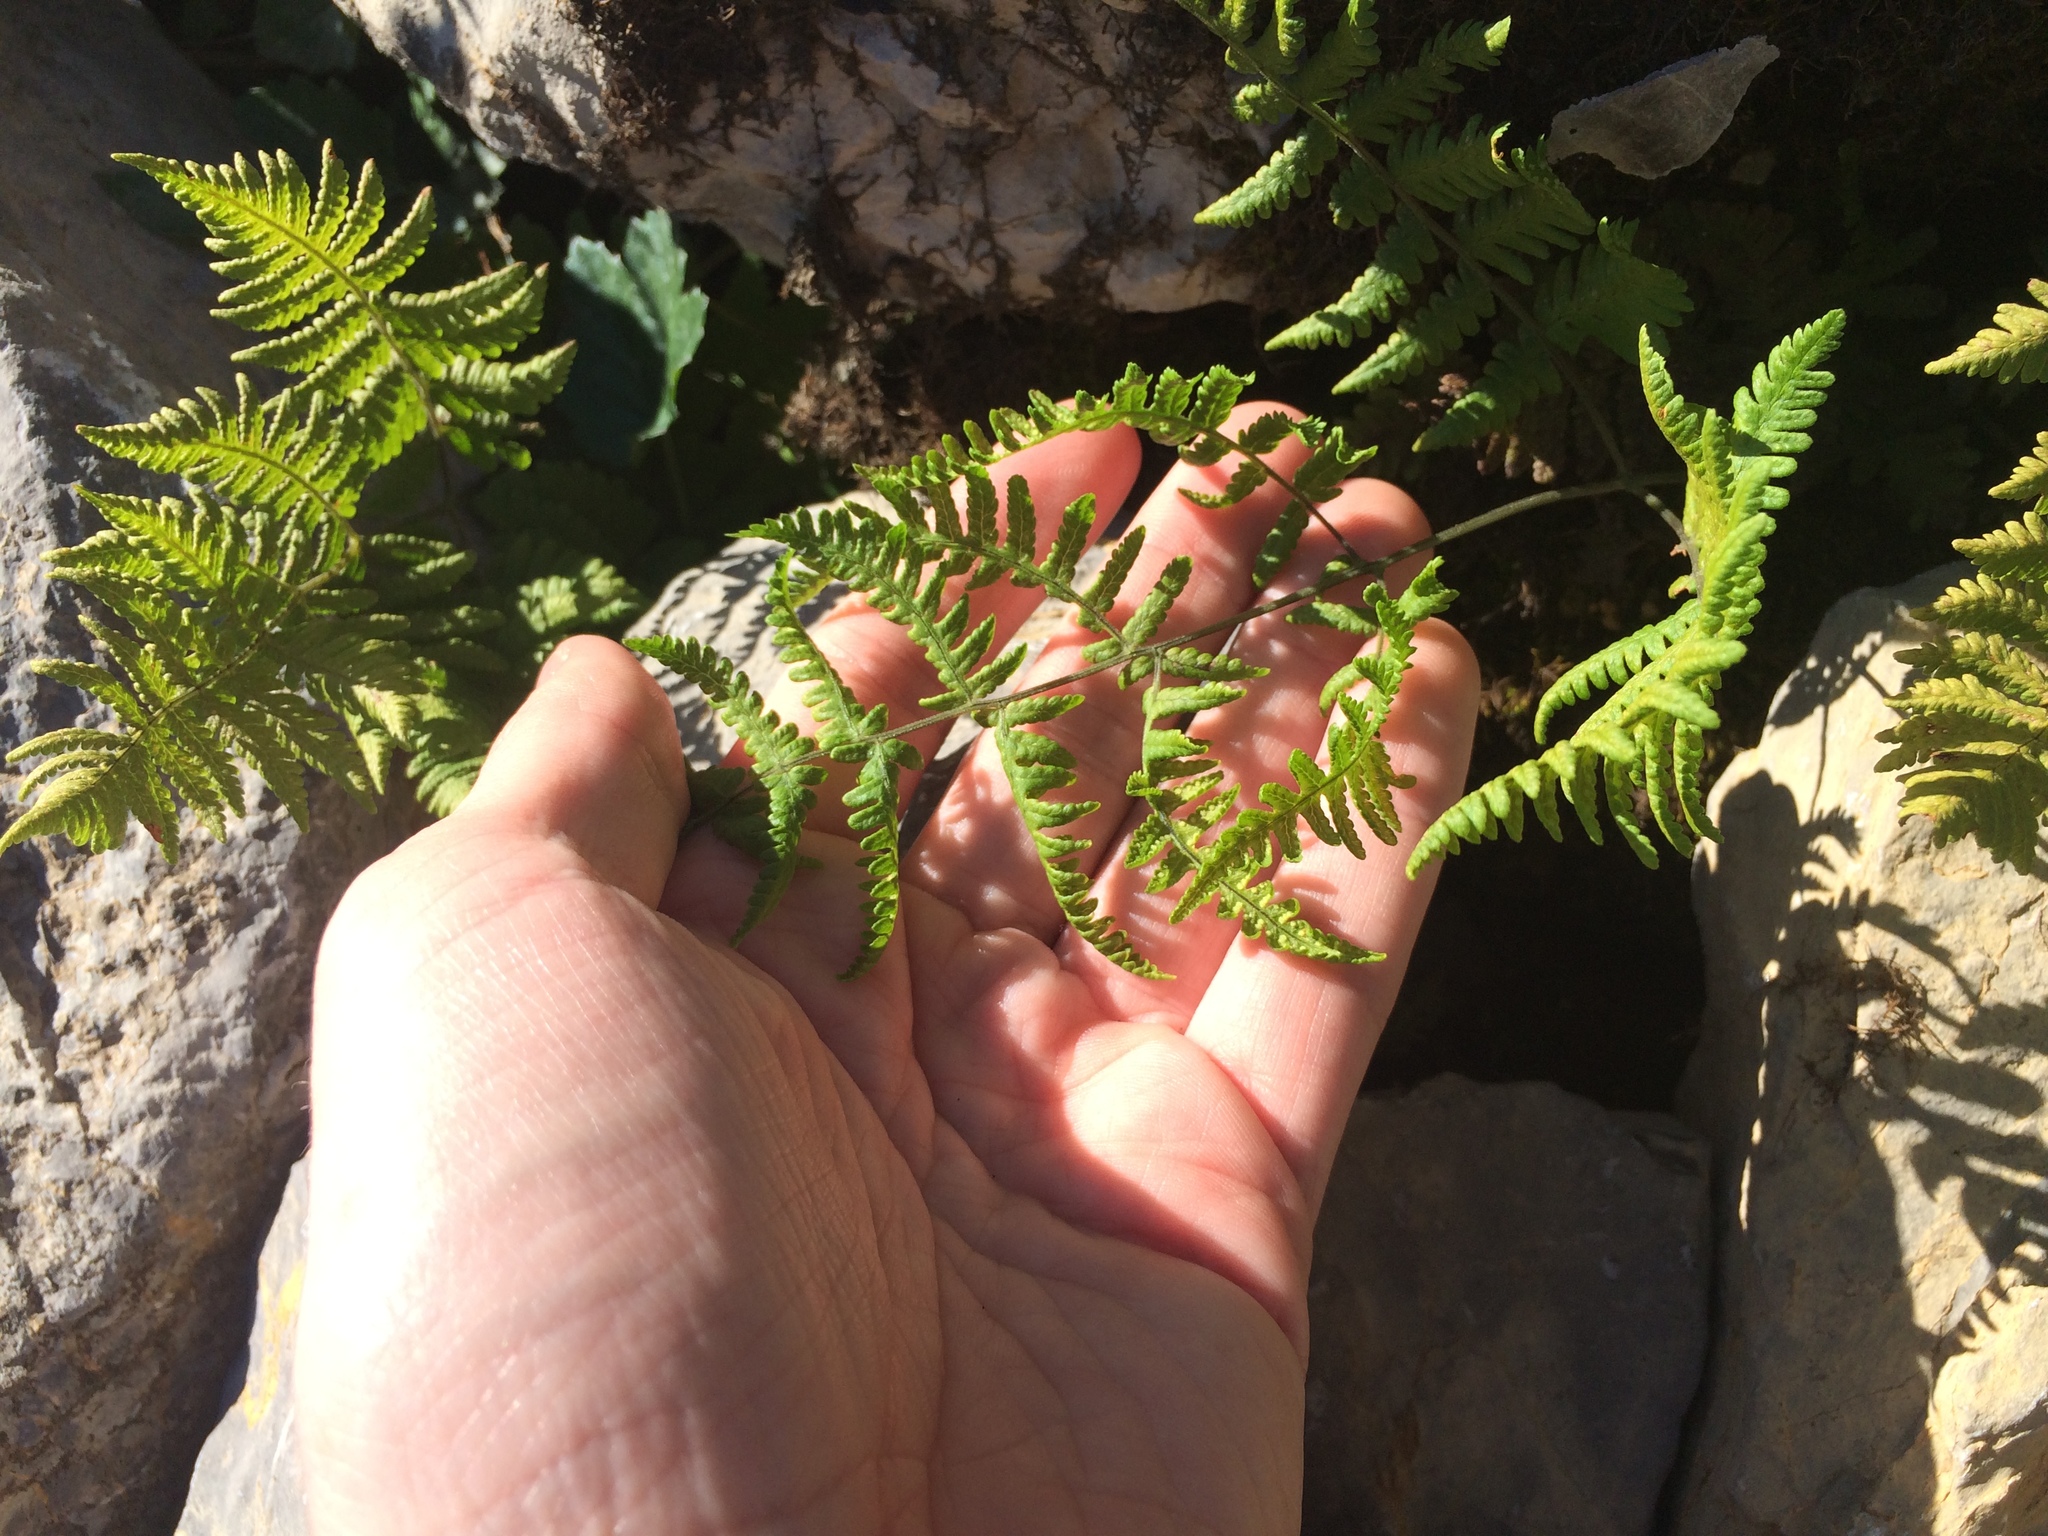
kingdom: Plantae
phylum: Tracheophyta
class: Polypodiopsida
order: Polypodiales
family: Cystopteridaceae
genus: Gymnocarpium
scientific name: Gymnocarpium robertianum
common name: Limestone fern
